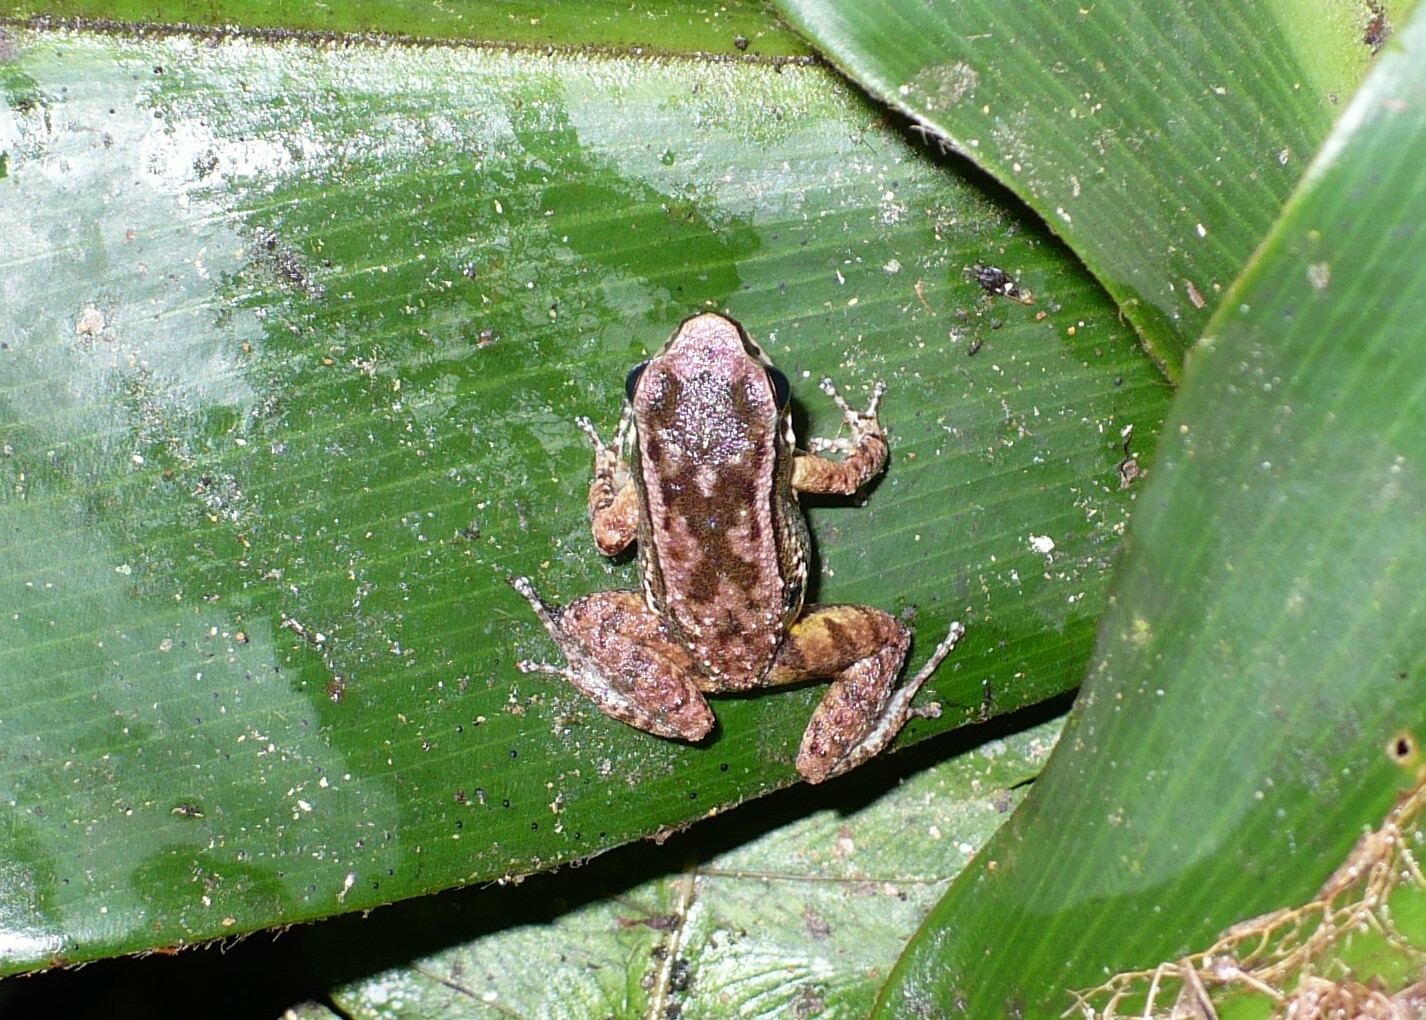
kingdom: Animalia
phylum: Chordata
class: Amphibia
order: Anura
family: Aromobatidae
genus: Mannophryne
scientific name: Mannophryne trinitatis
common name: Trinidad poison frog
